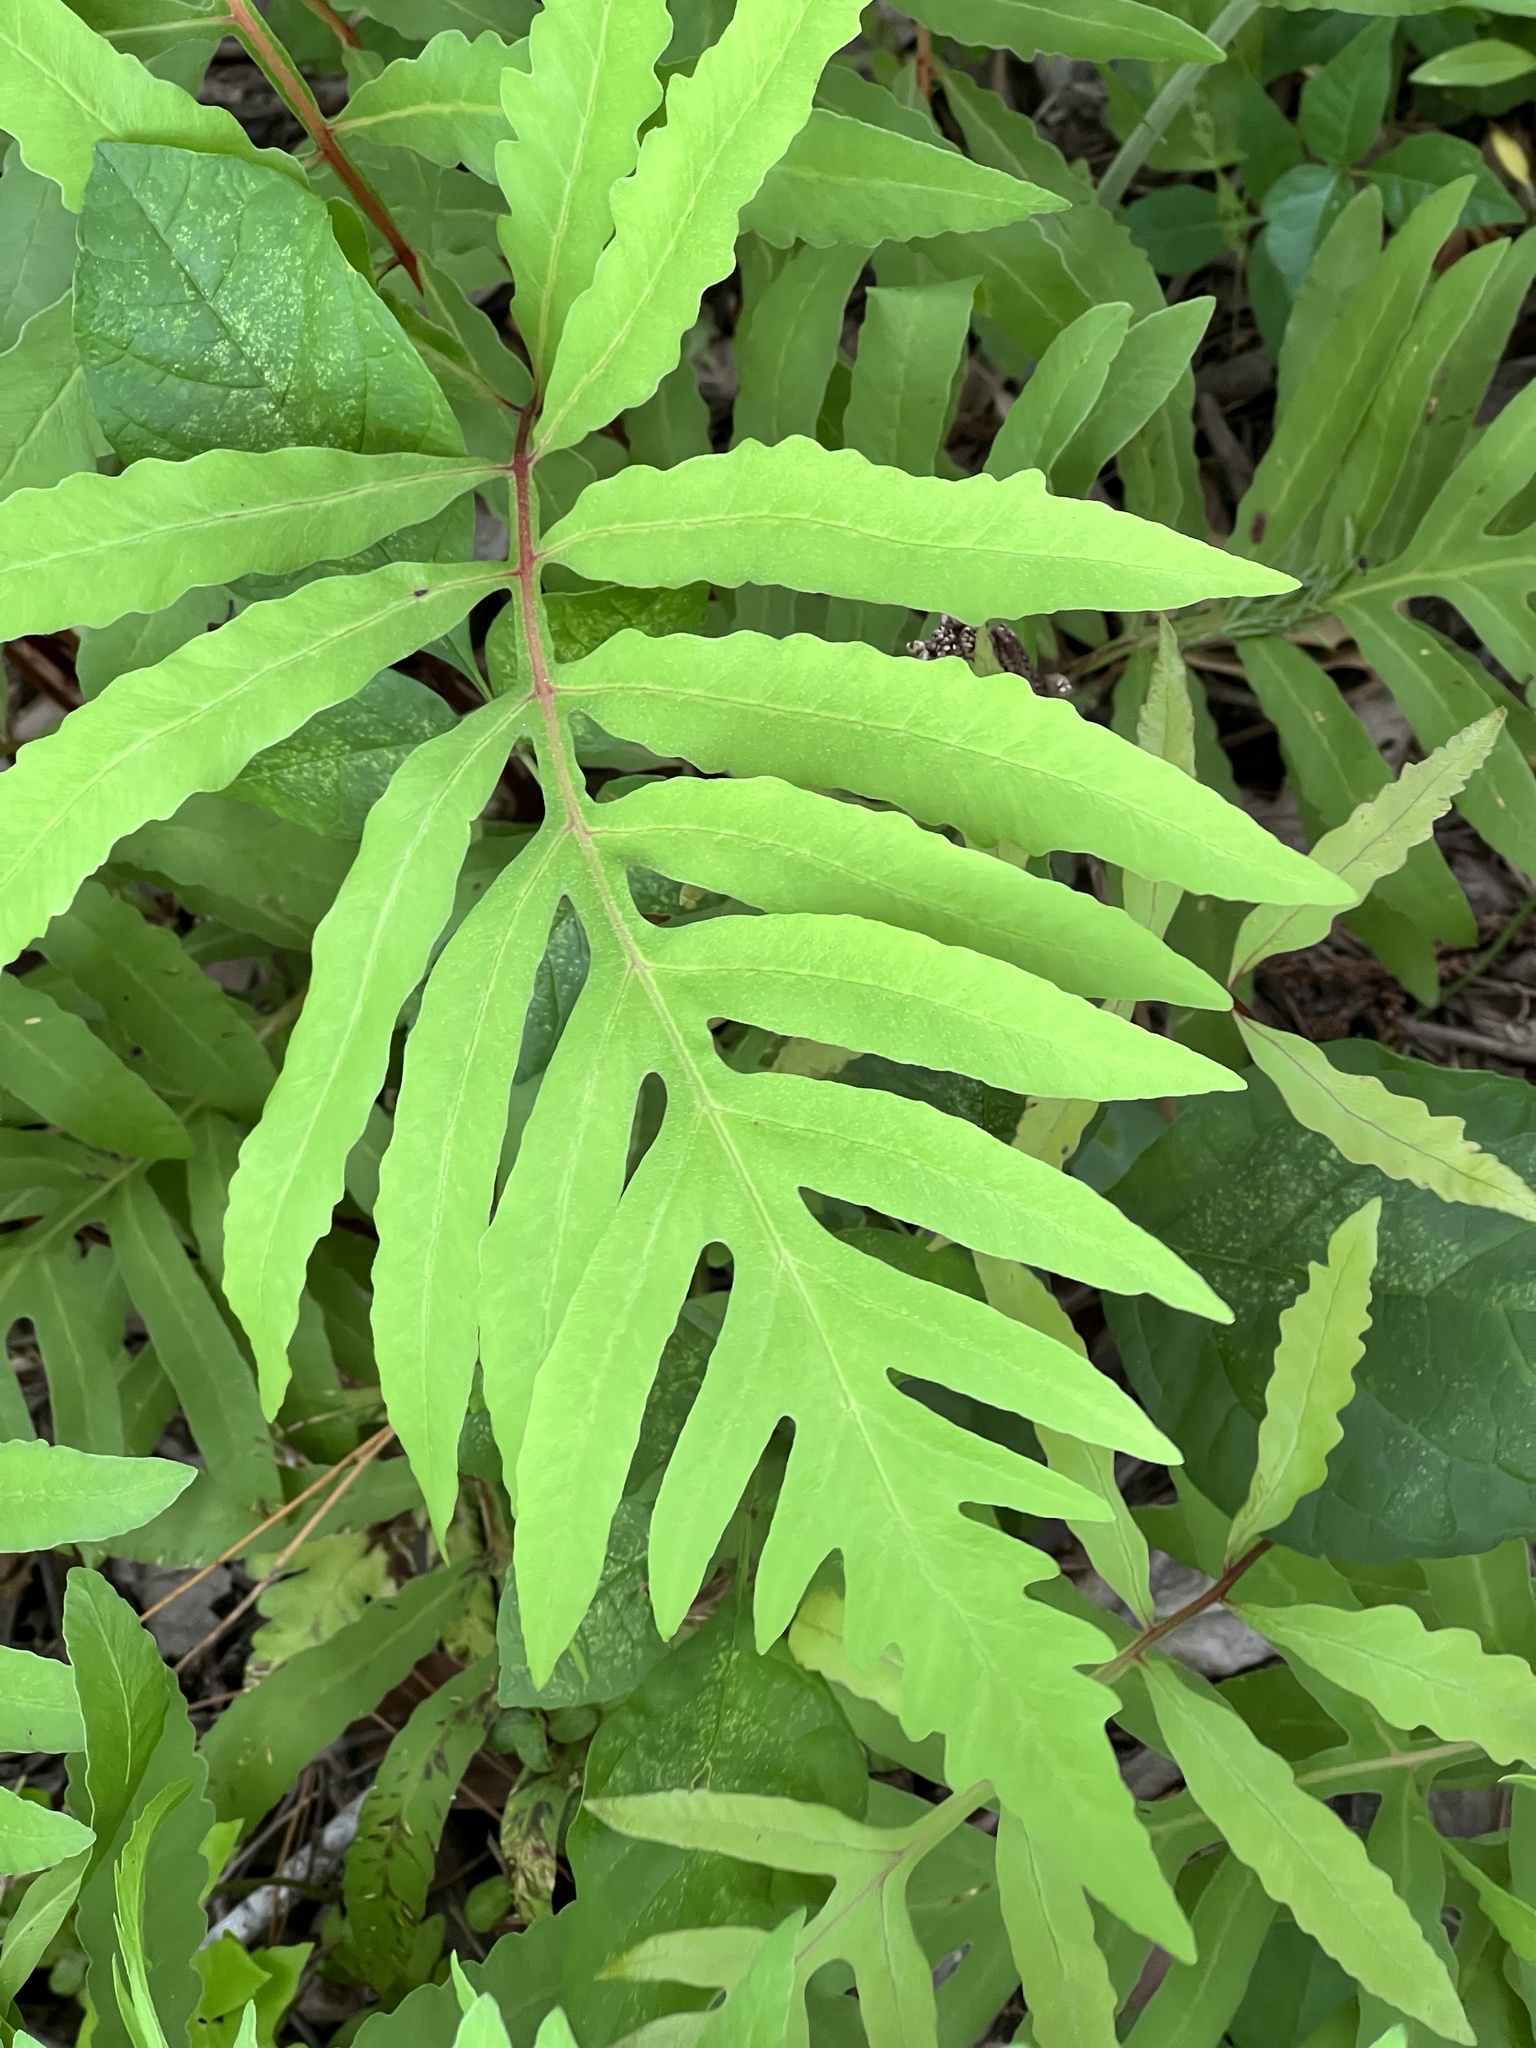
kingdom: Plantae
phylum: Tracheophyta
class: Polypodiopsida
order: Polypodiales
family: Onocleaceae
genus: Onoclea
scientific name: Onoclea sensibilis
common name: Sensitive fern
